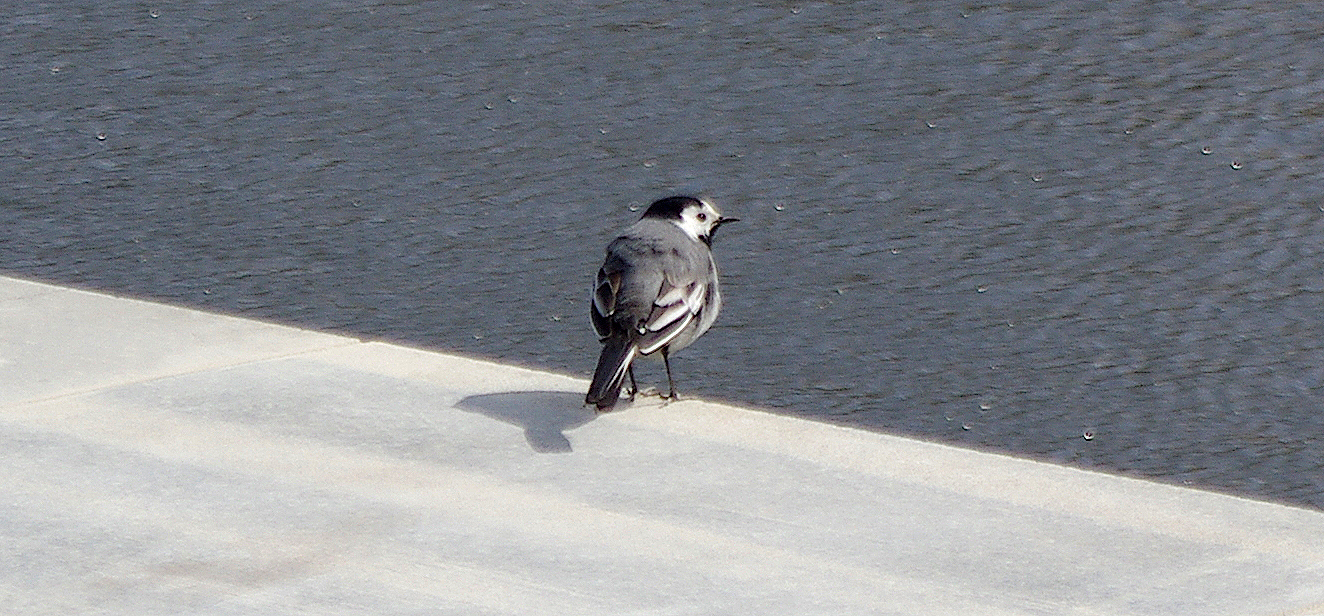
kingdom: Animalia
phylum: Chordata
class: Aves
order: Passeriformes
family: Motacillidae
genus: Motacilla
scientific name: Motacilla alba
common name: White wagtail
